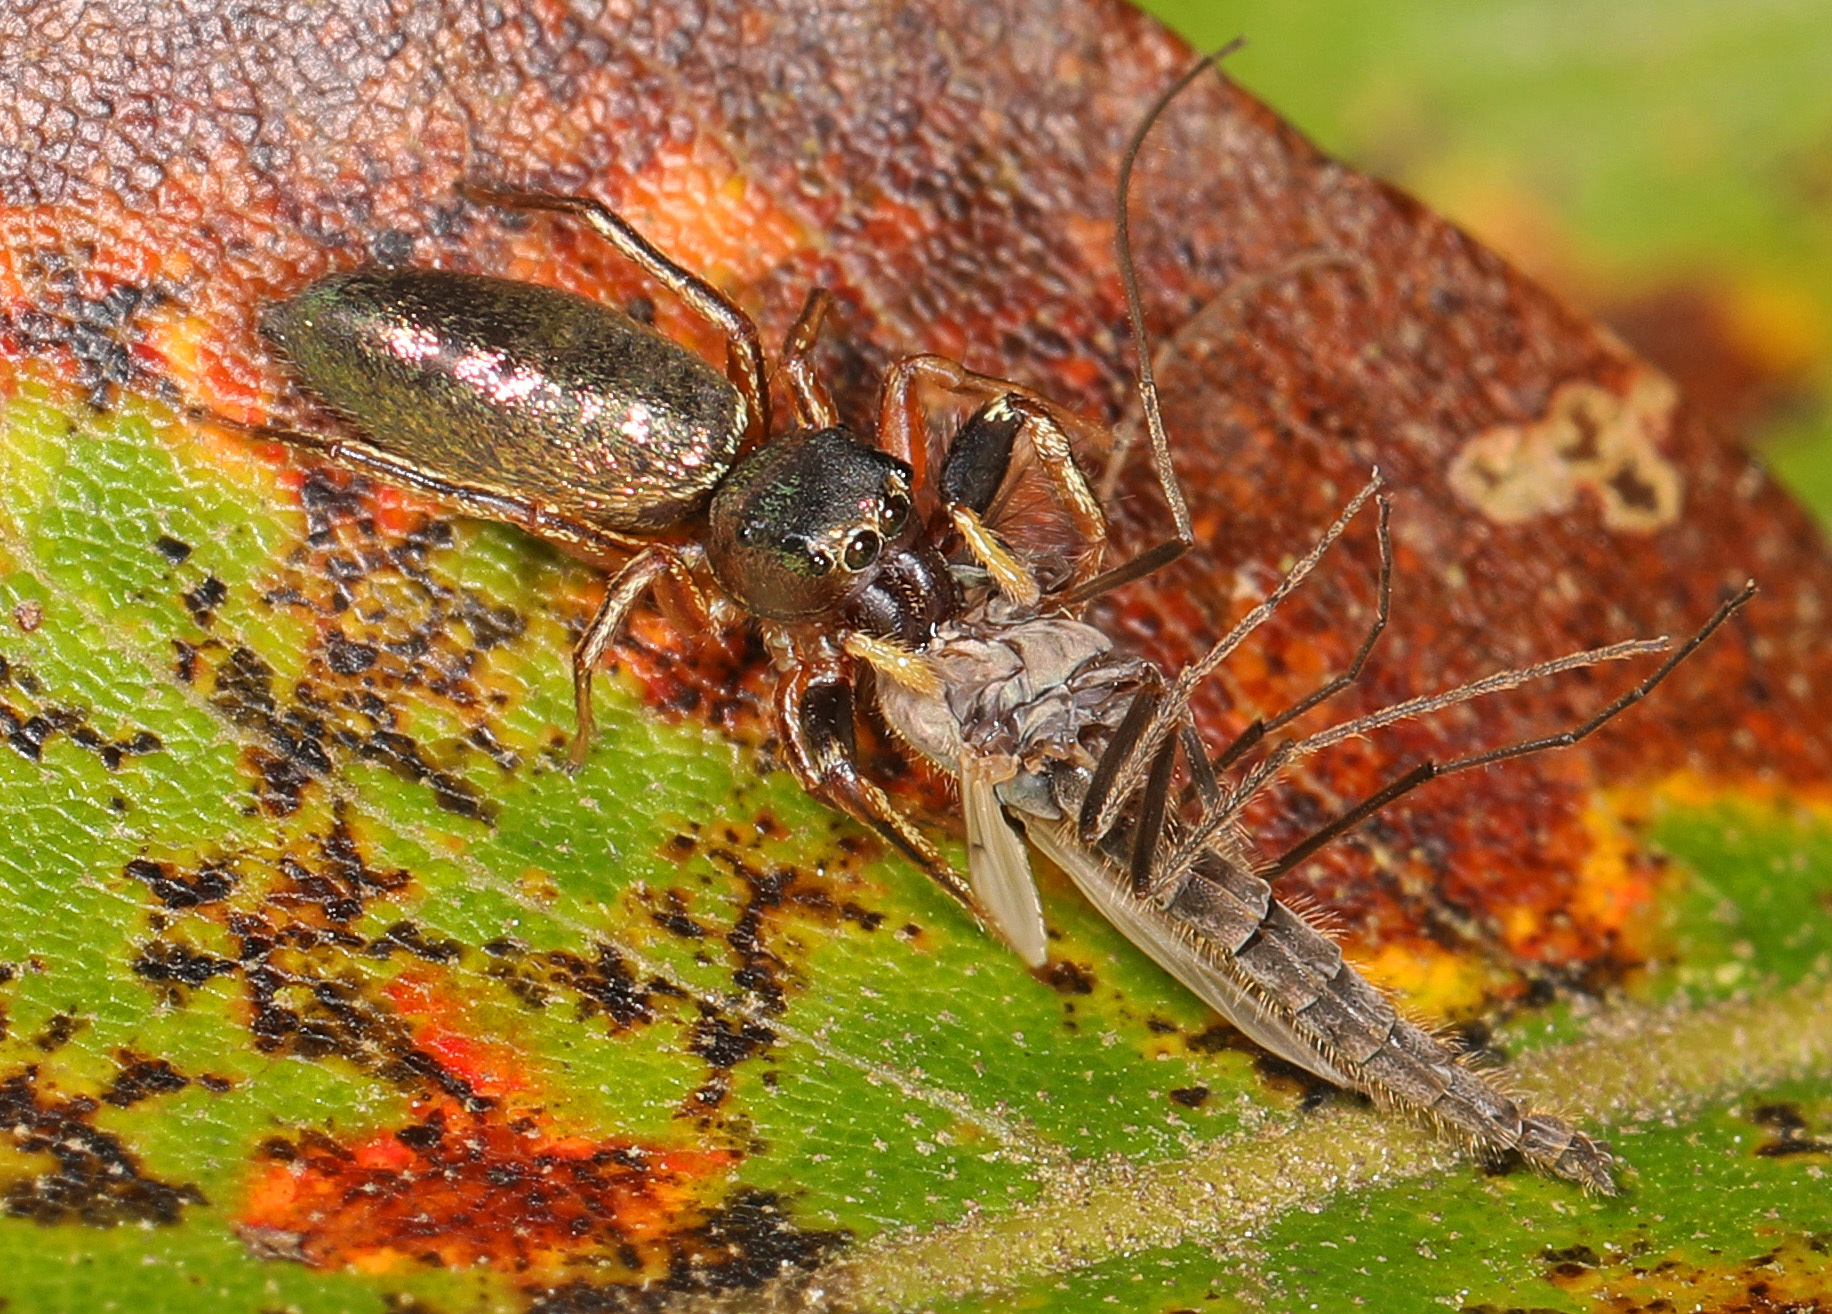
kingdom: Animalia
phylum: Arthropoda
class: Arachnida
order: Araneae
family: Salticidae
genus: Tutelina
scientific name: Tutelina elegans
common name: Thin-spined jumping spider
